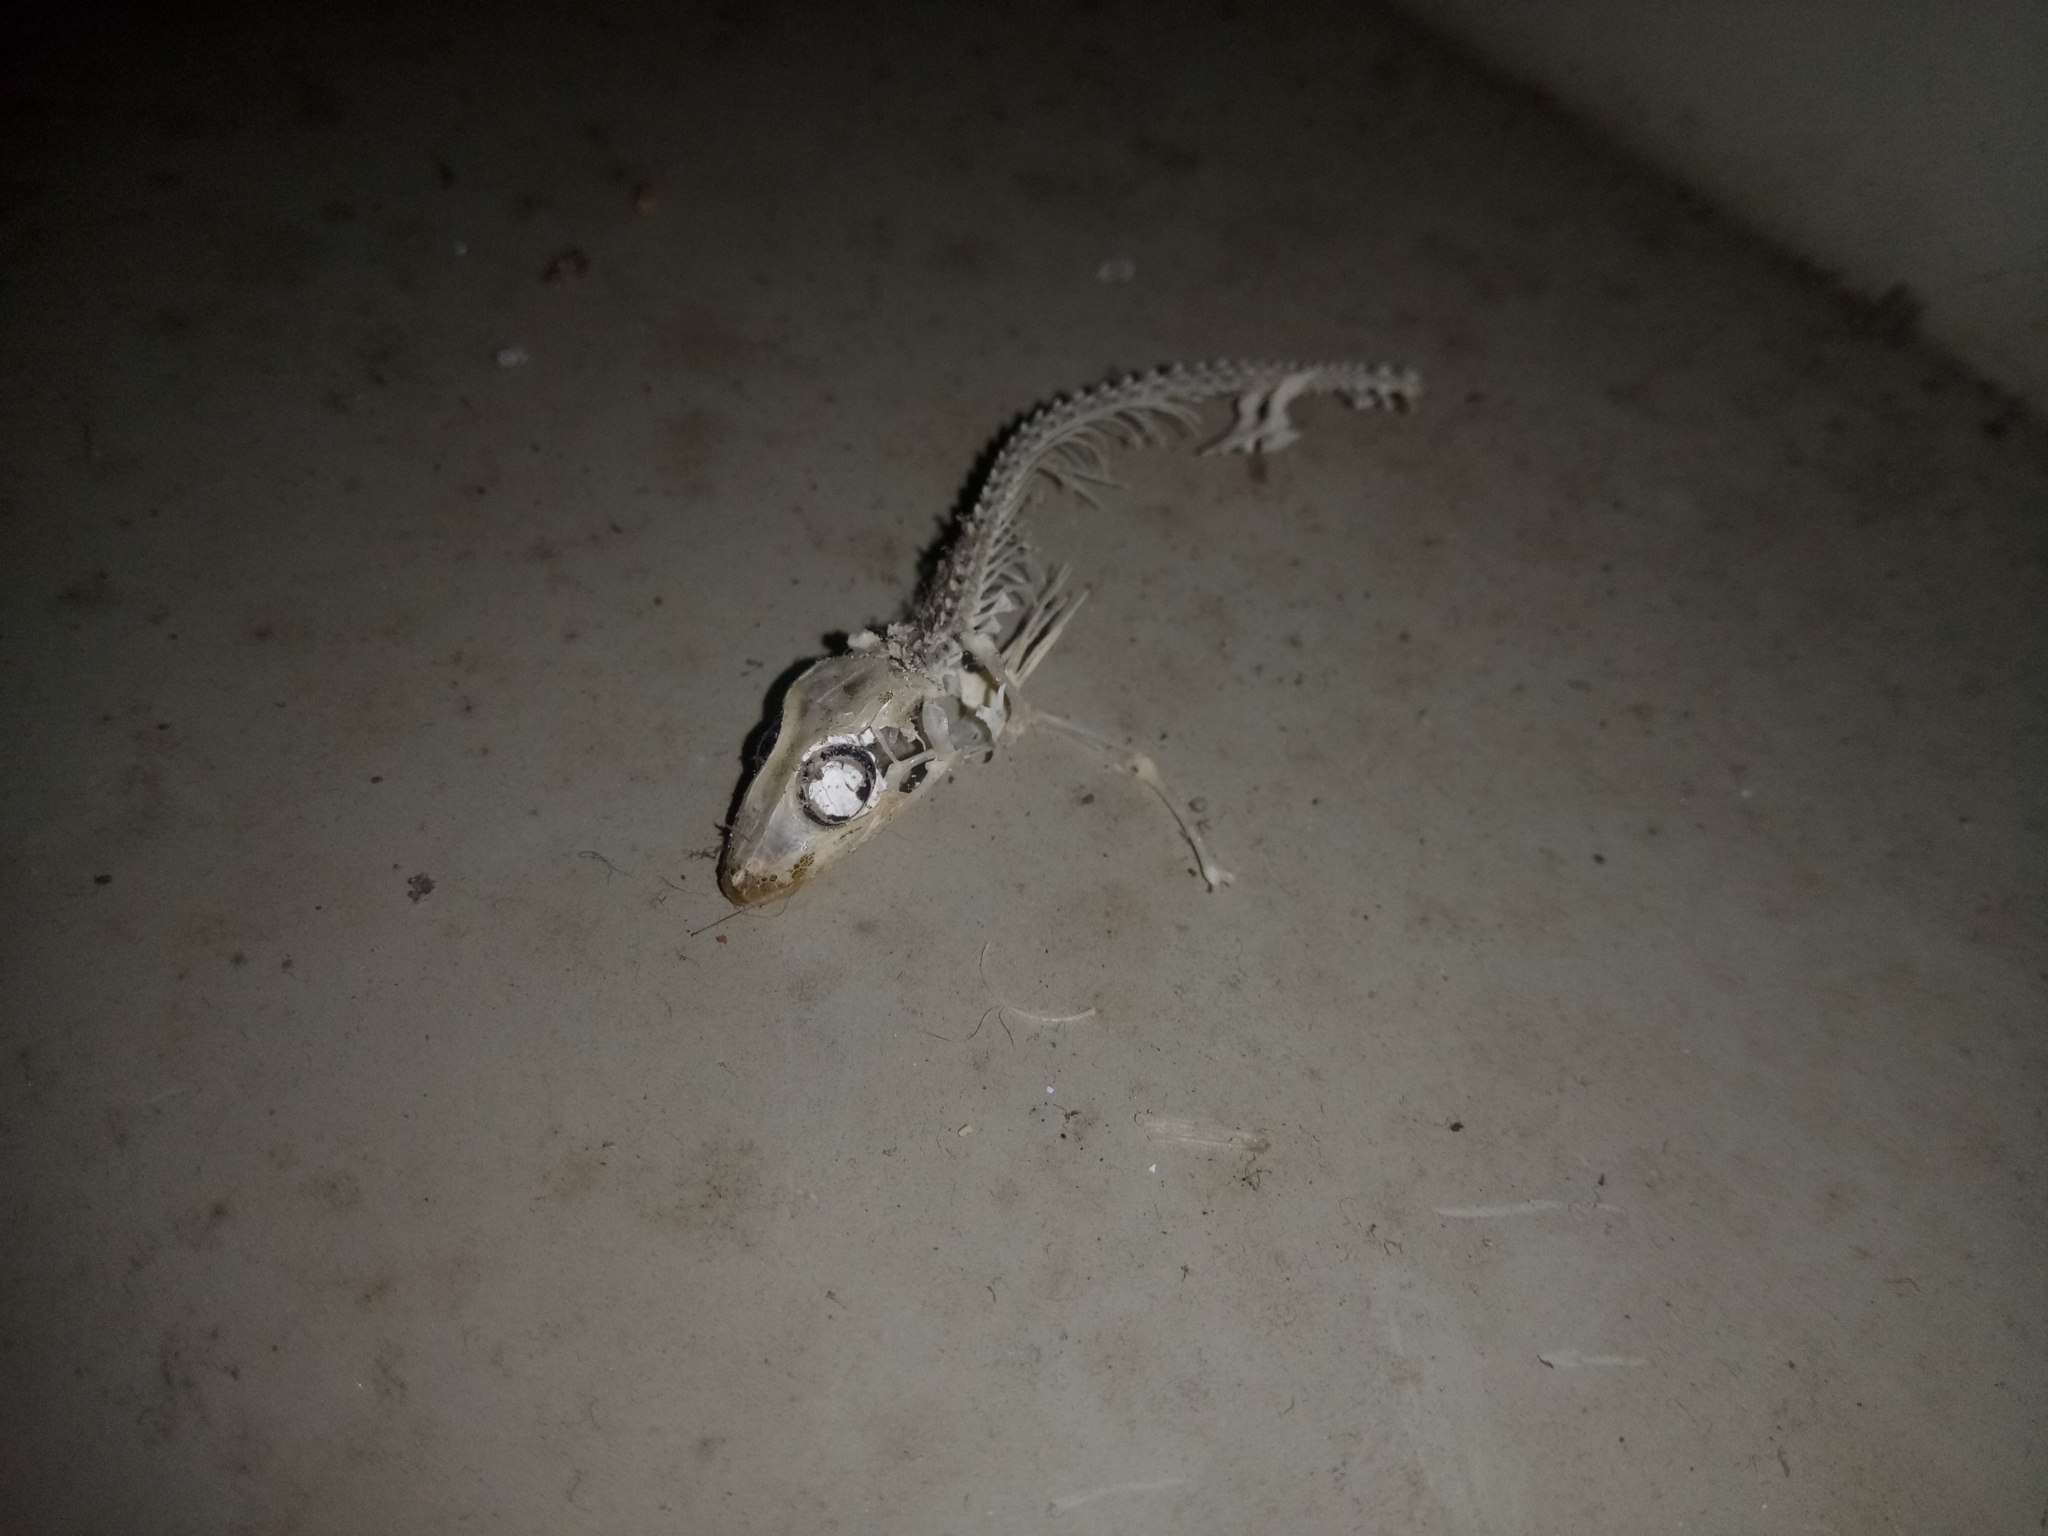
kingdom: Animalia
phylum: Chordata
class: Squamata
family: Gekkonidae
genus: Hemidactylus
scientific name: Hemidactylus frenatus
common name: Common house gecko
